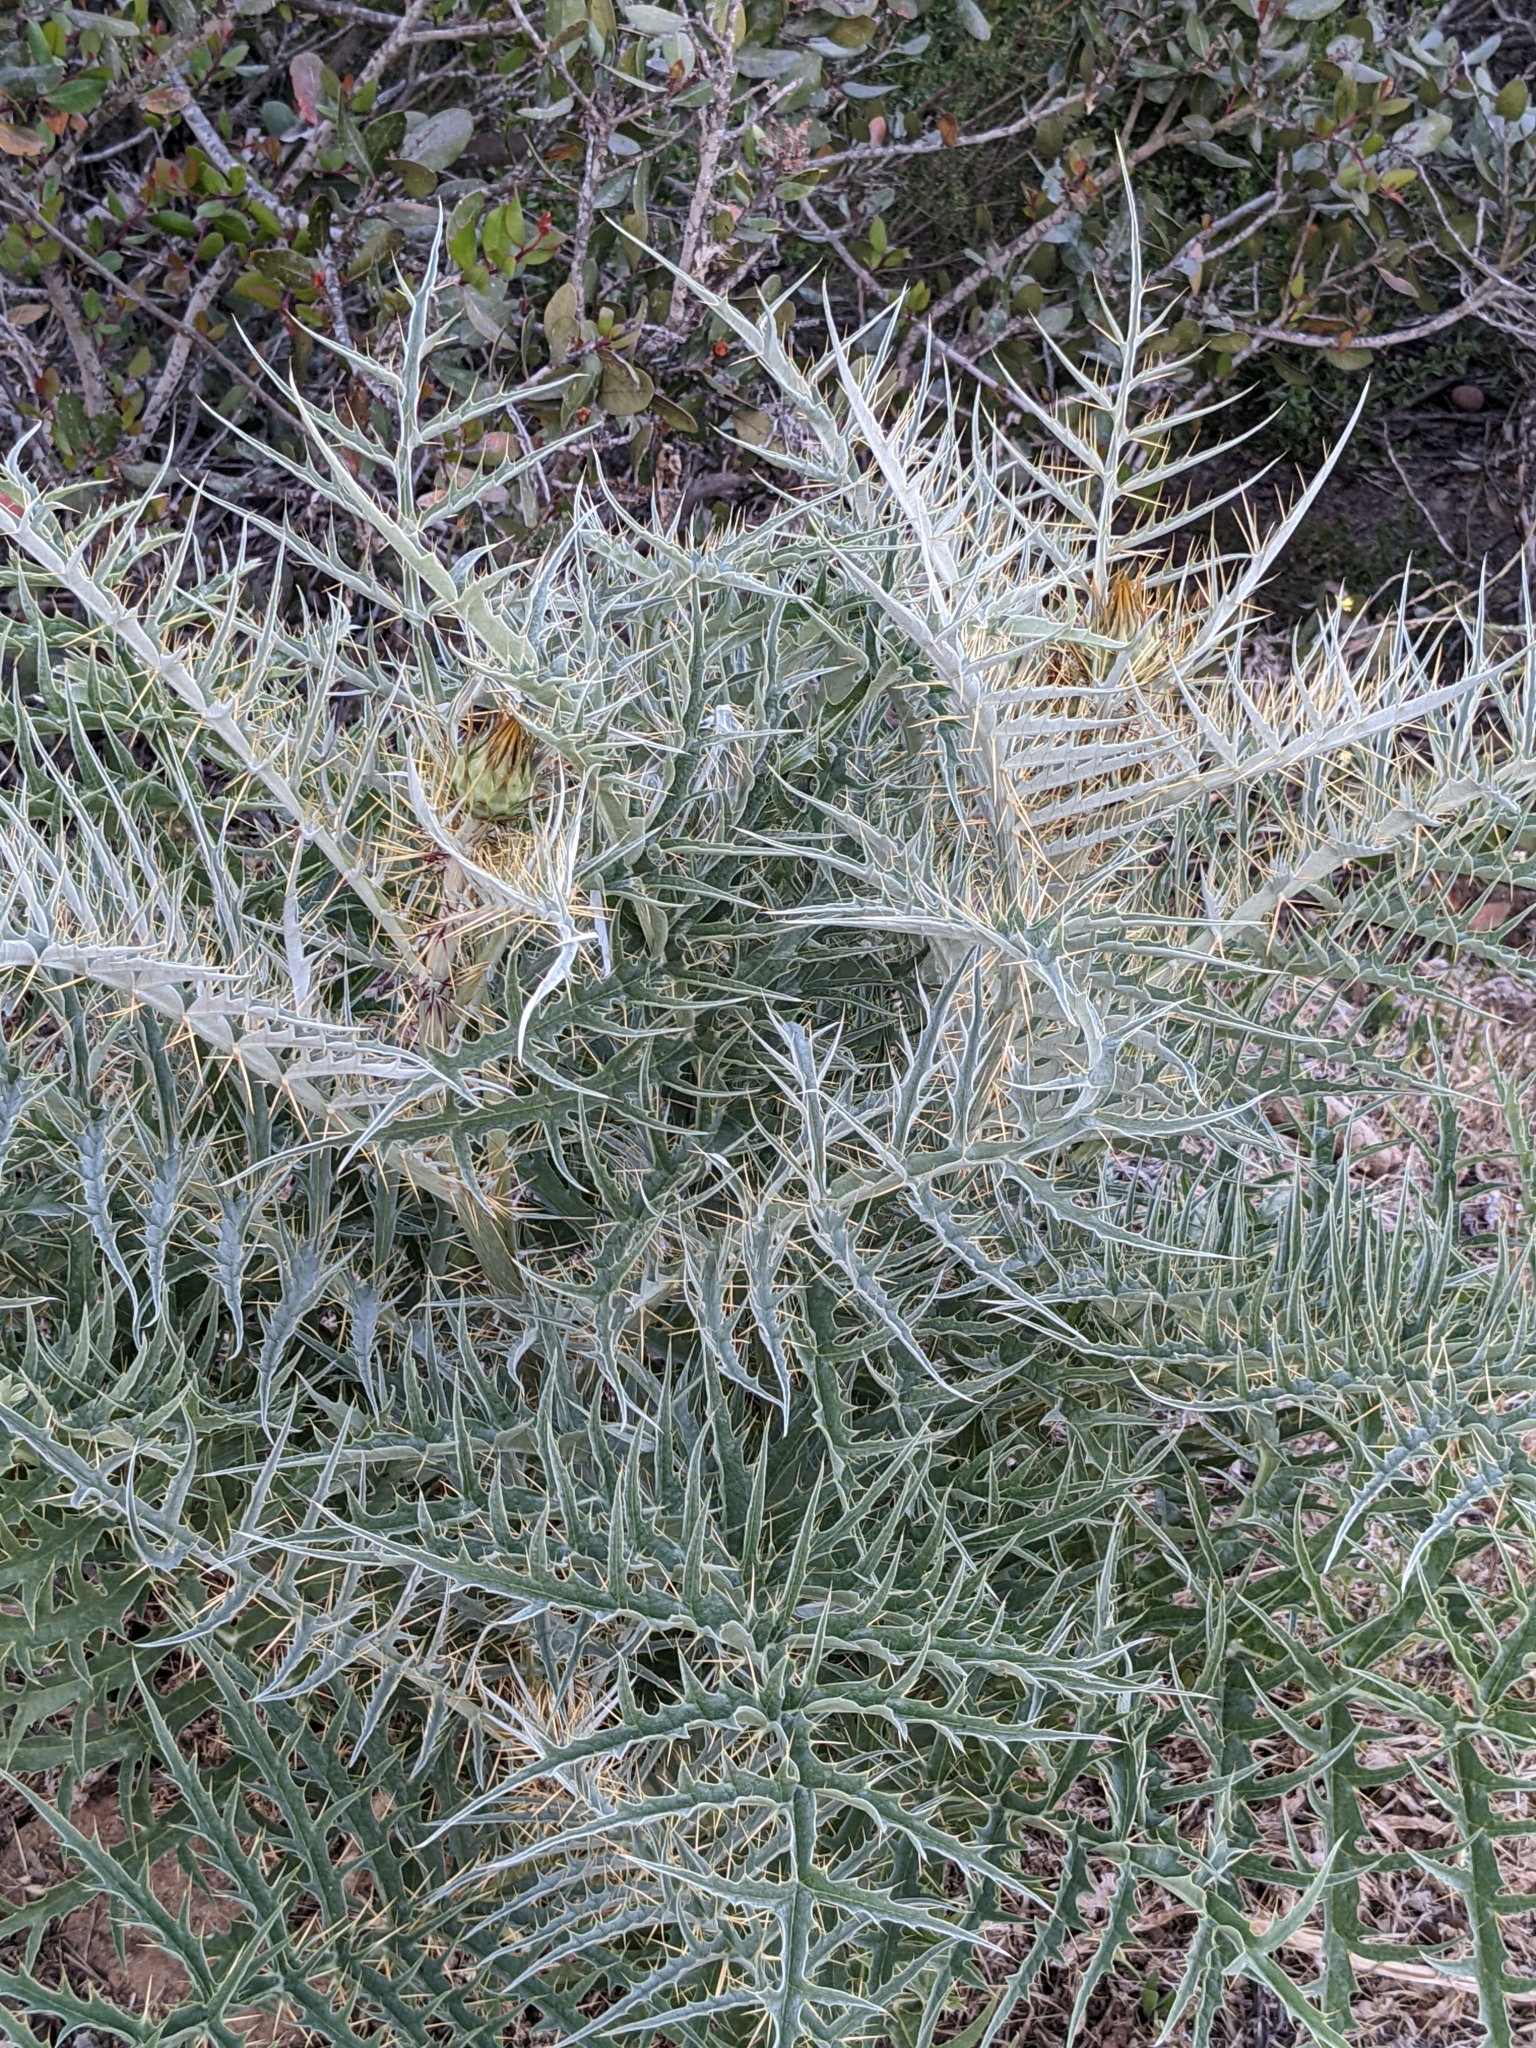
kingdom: Plantae
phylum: Tracheophyta
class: Magnoliopsida
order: Asterales
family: Asteraceae
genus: Cynara
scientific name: Cynara cardunculus
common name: Globe artichoke
